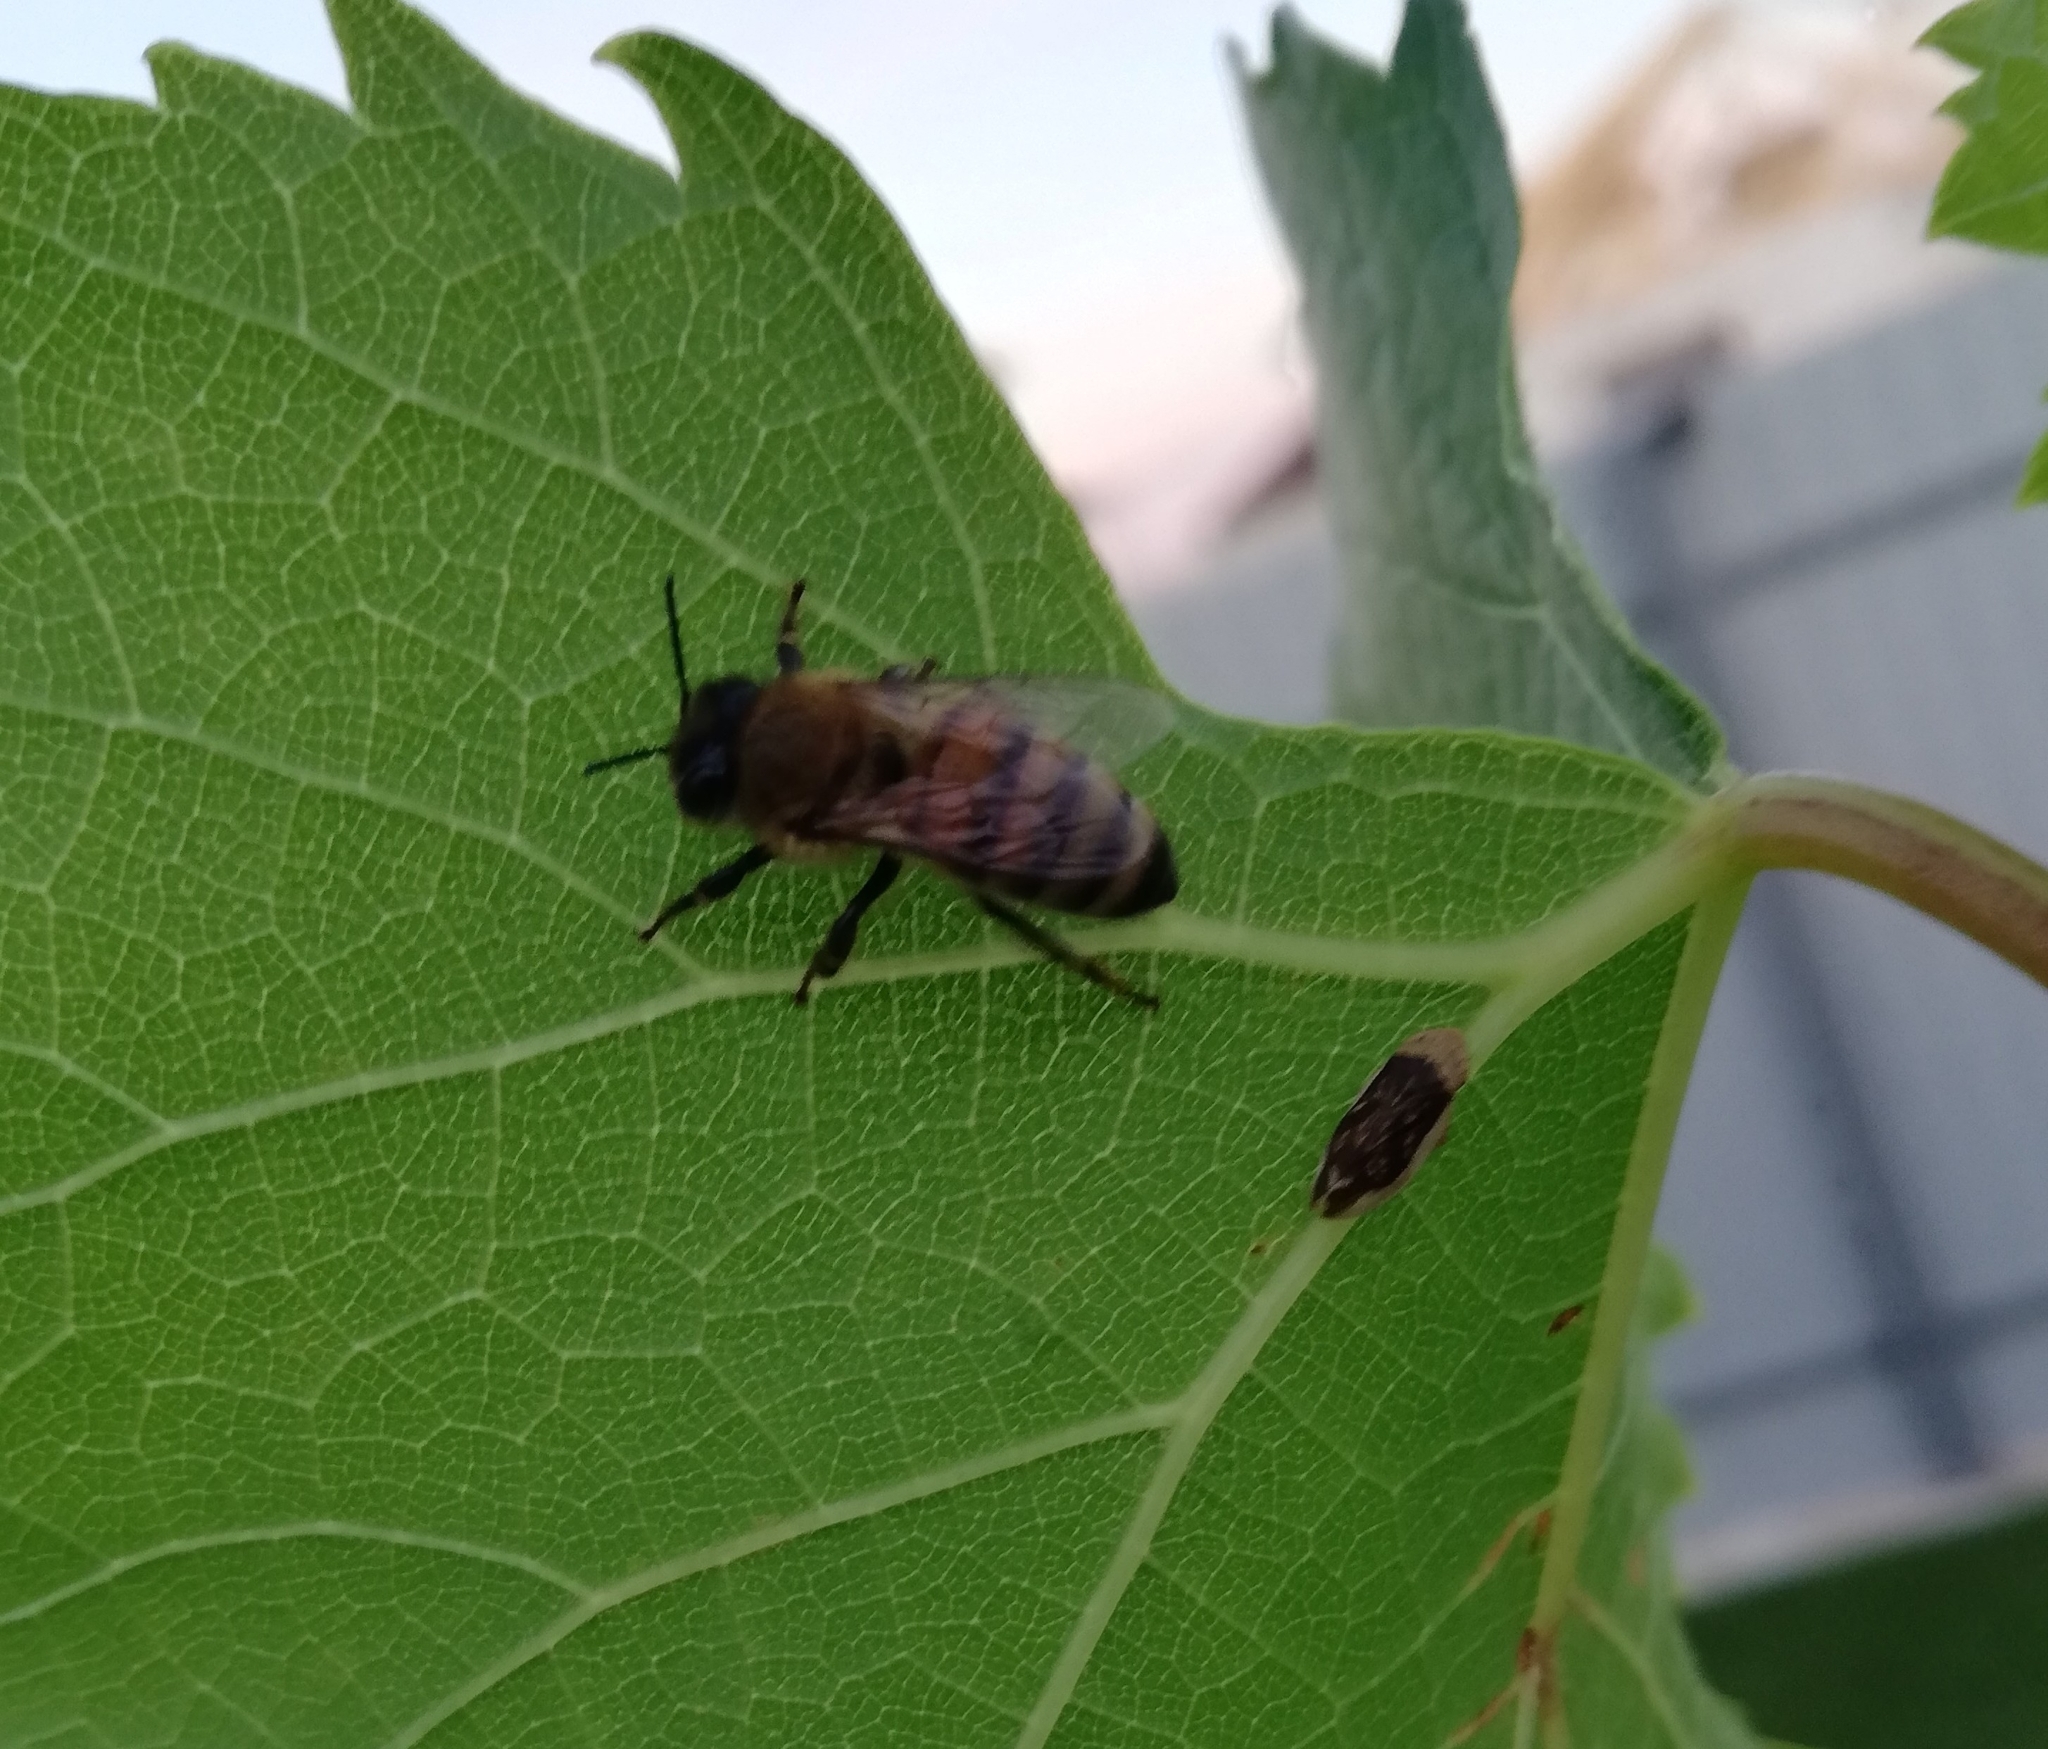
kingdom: Animalia
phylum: Arthropoda
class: Insecta
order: Hymenoptera
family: Apidae
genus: Apis
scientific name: Apis mellifera
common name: Honey bee
